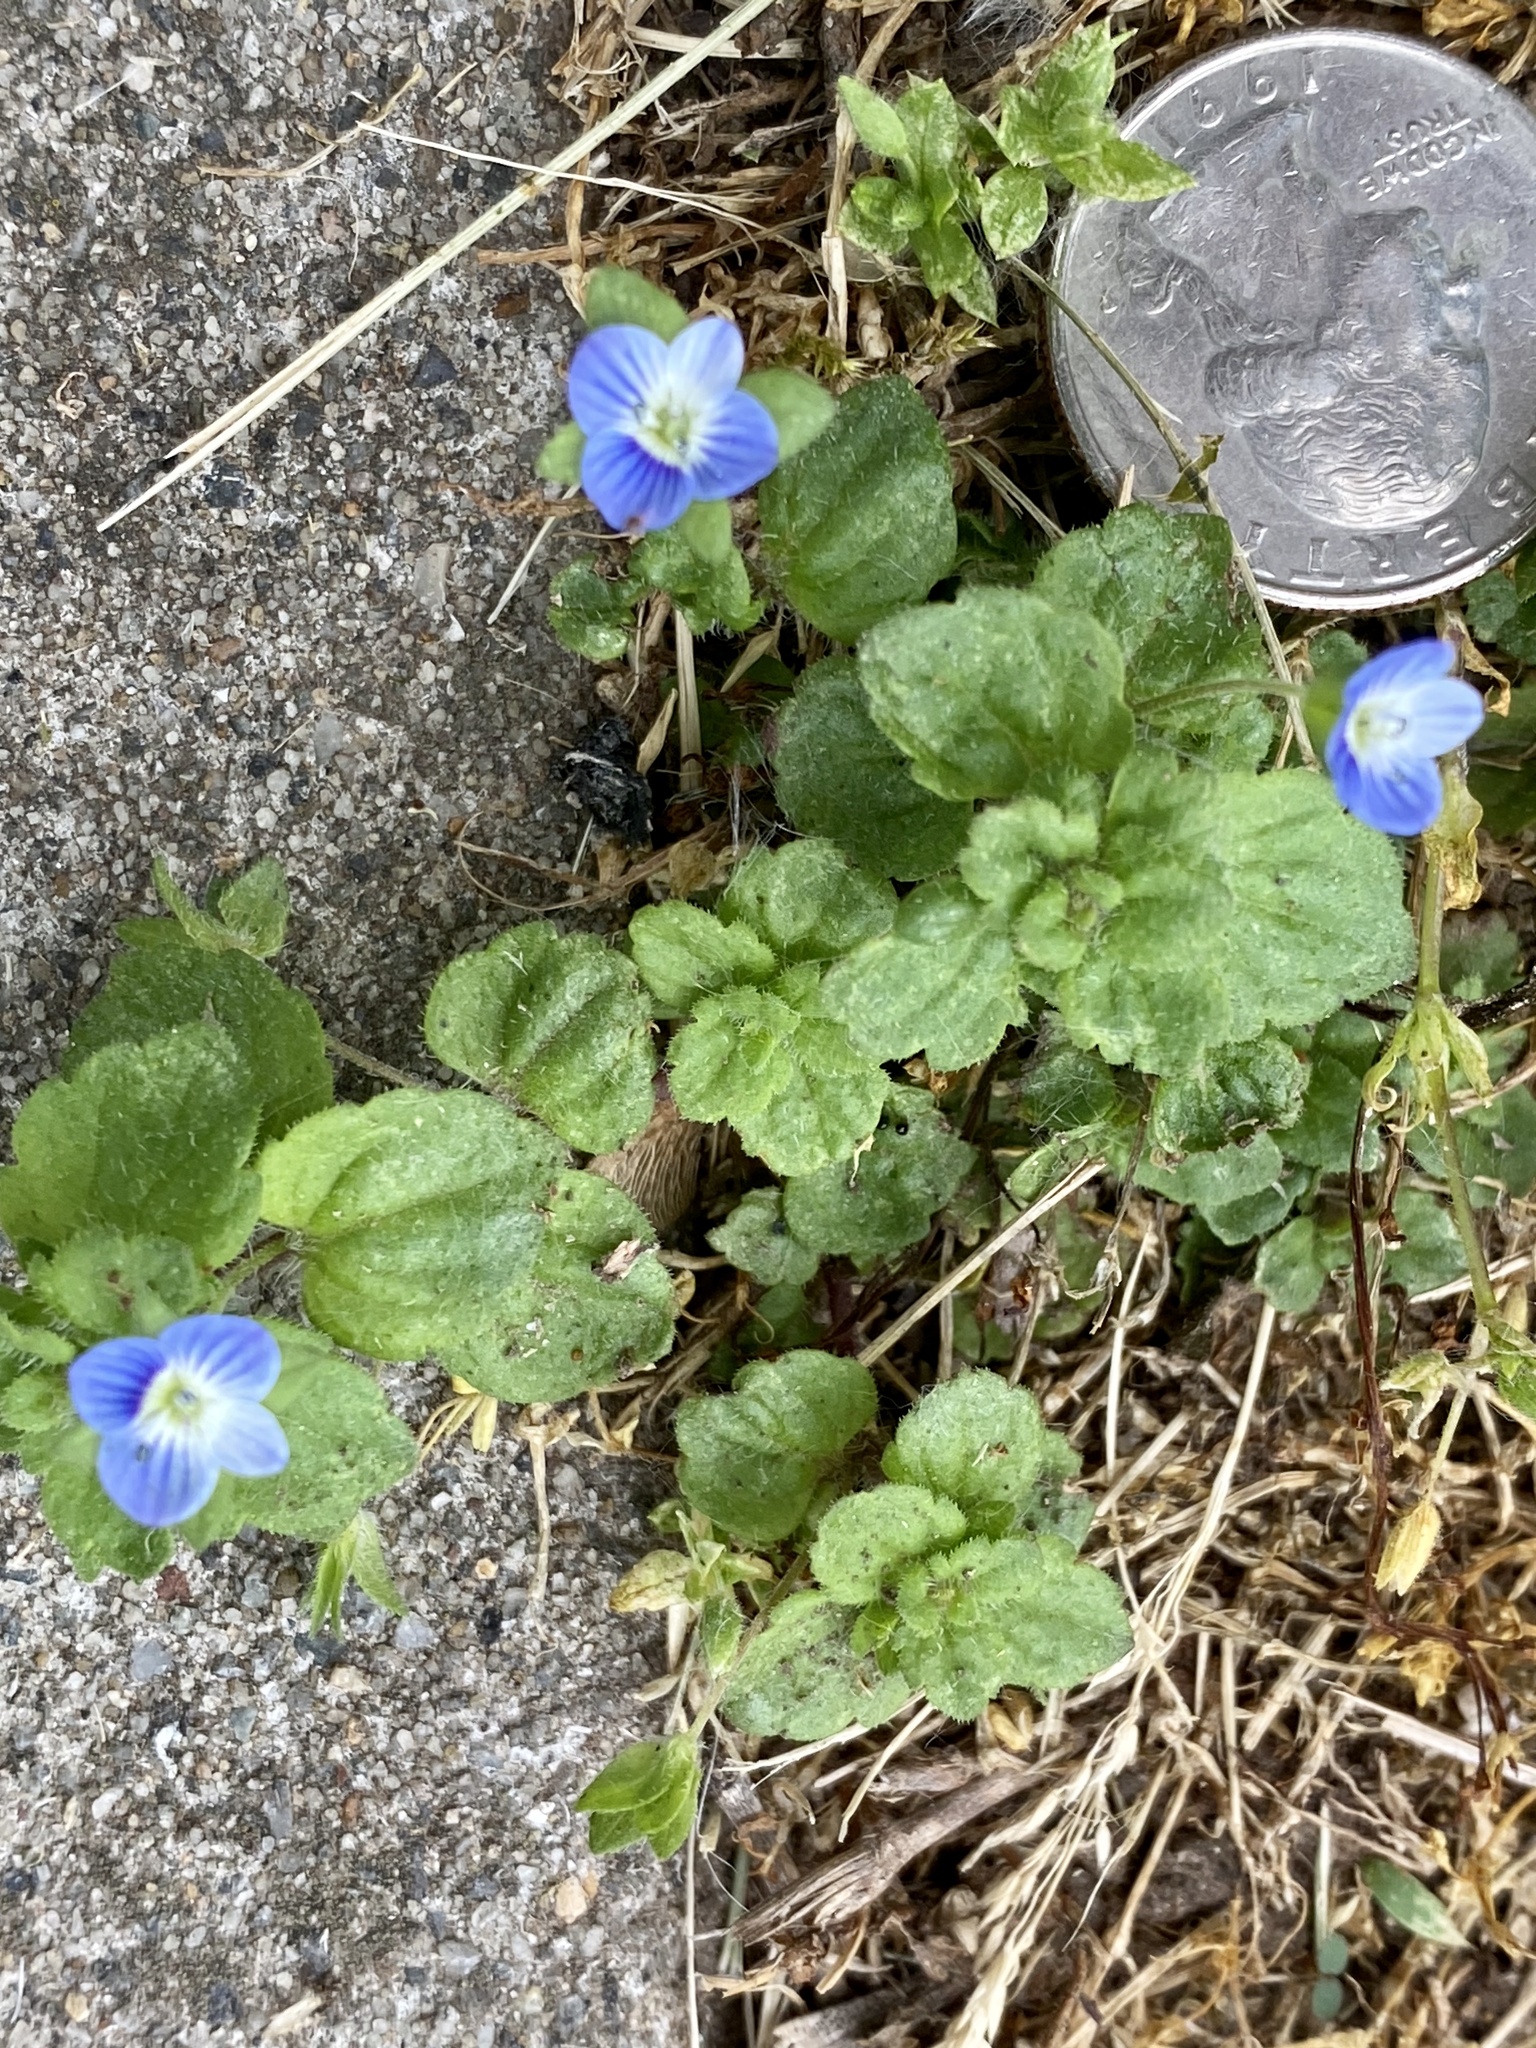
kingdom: Plantae
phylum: Tracheophyta
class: Magnoliopsida
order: Lamiales
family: Plantaginaceae
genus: Veronica
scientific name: Veronica persica
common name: Common field-speedwell
